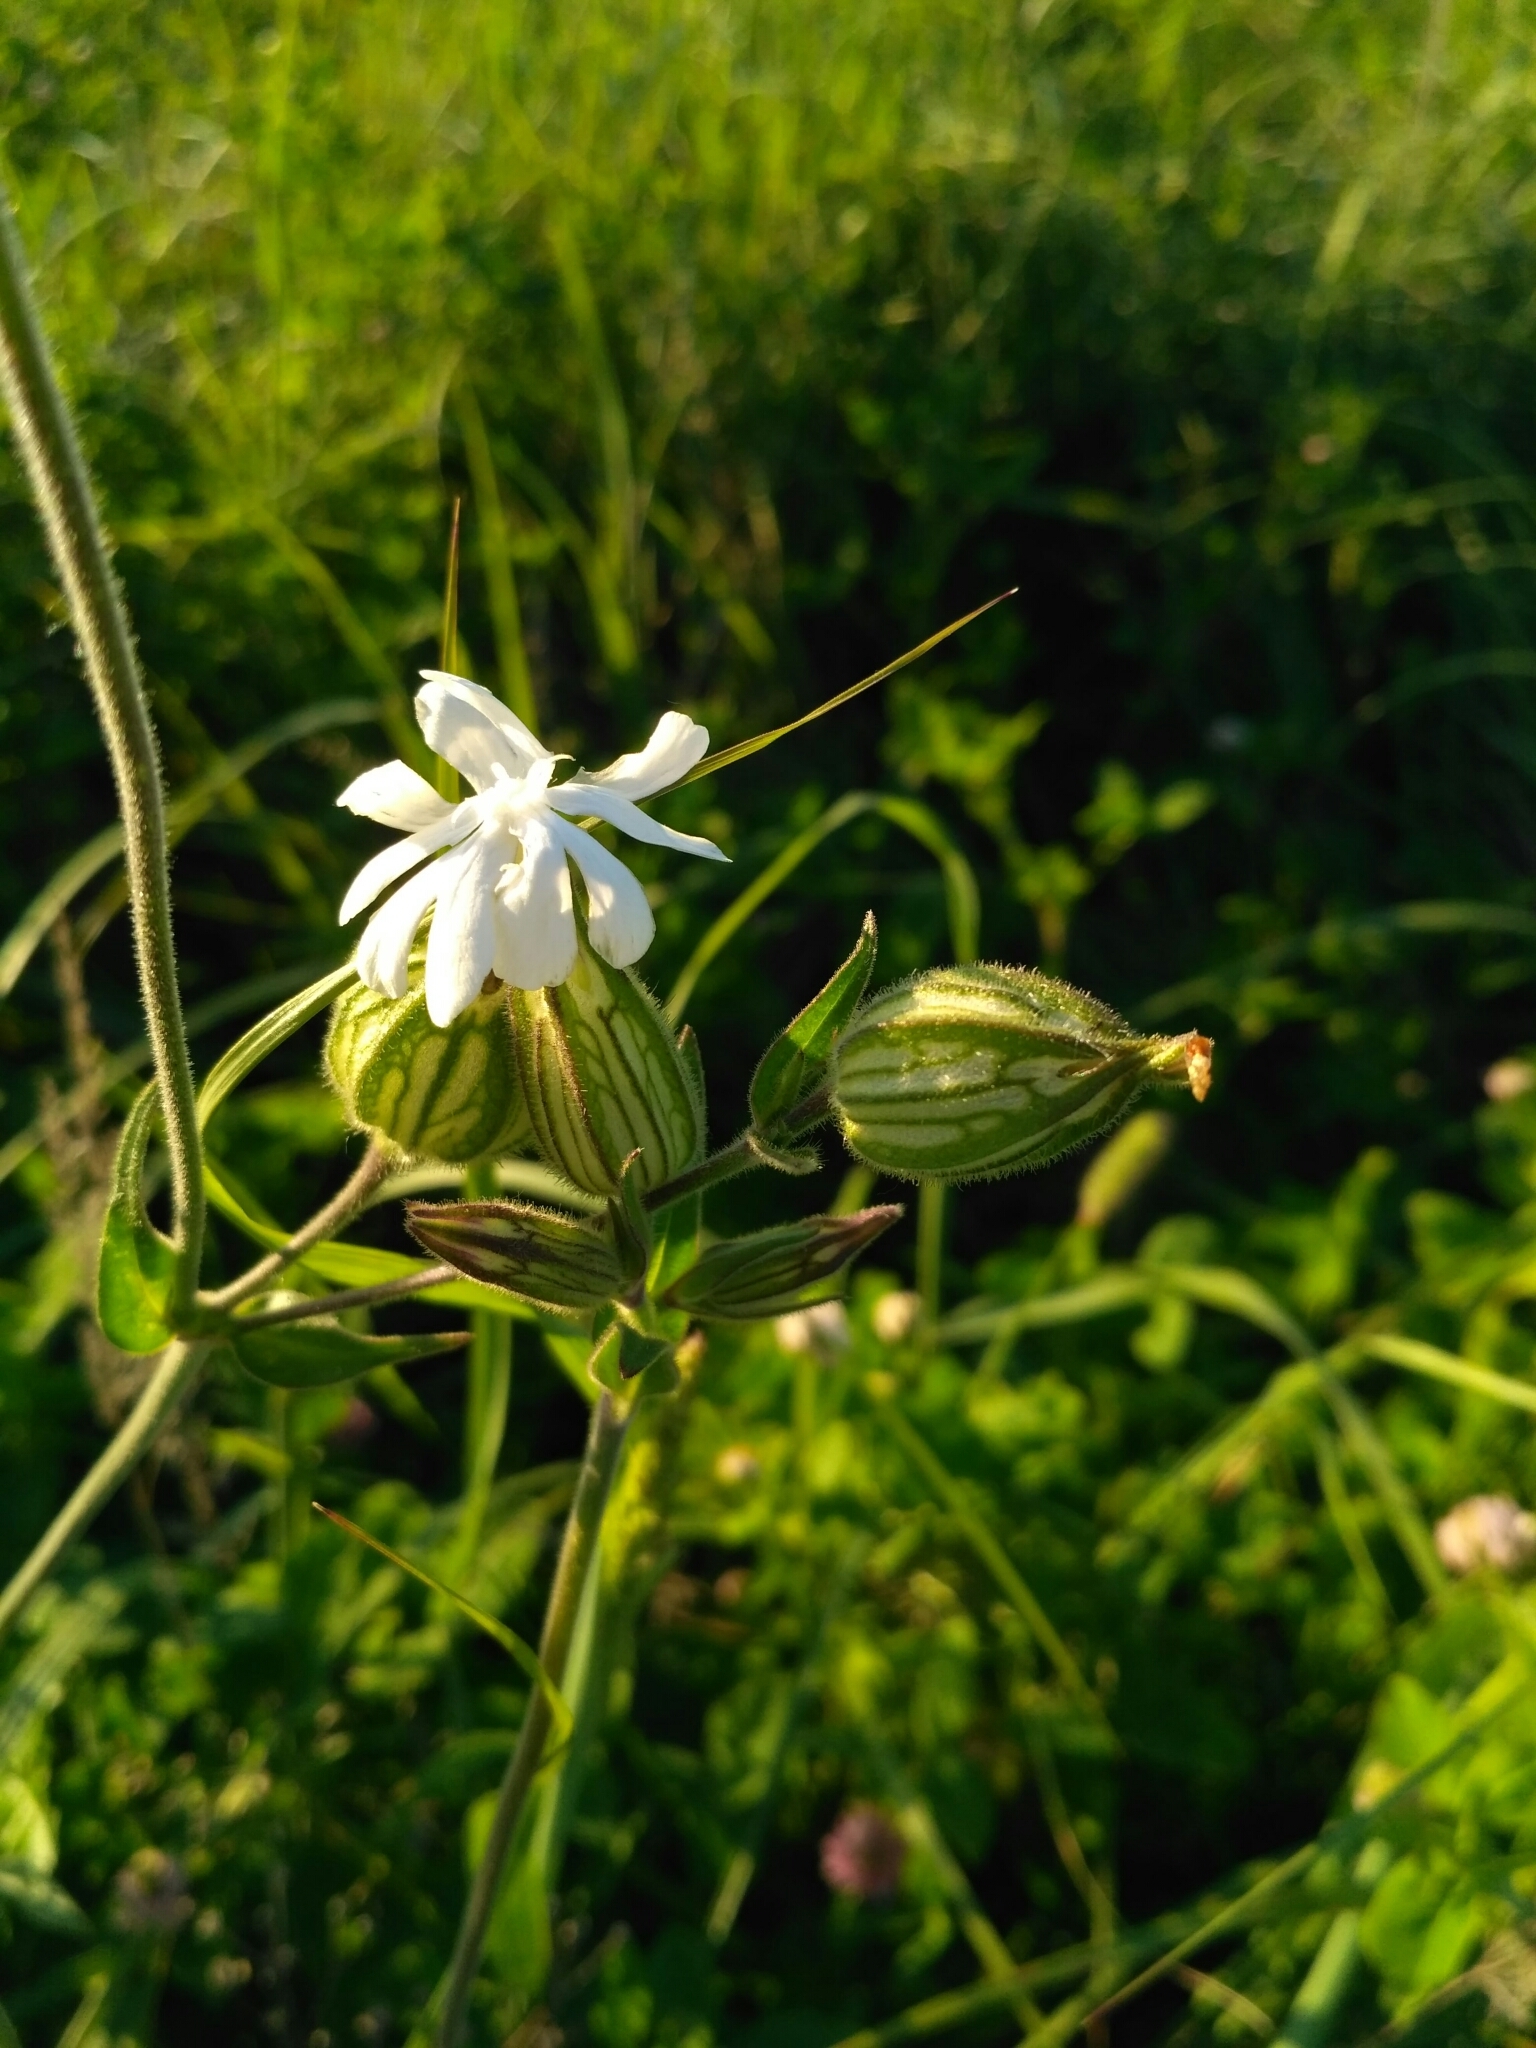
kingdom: Plantae
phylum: Tracheophyta
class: Magnoliopsida
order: Caryophyllales
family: Caryophyllaceae
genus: Silene
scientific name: Silene latifolia
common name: White campion
